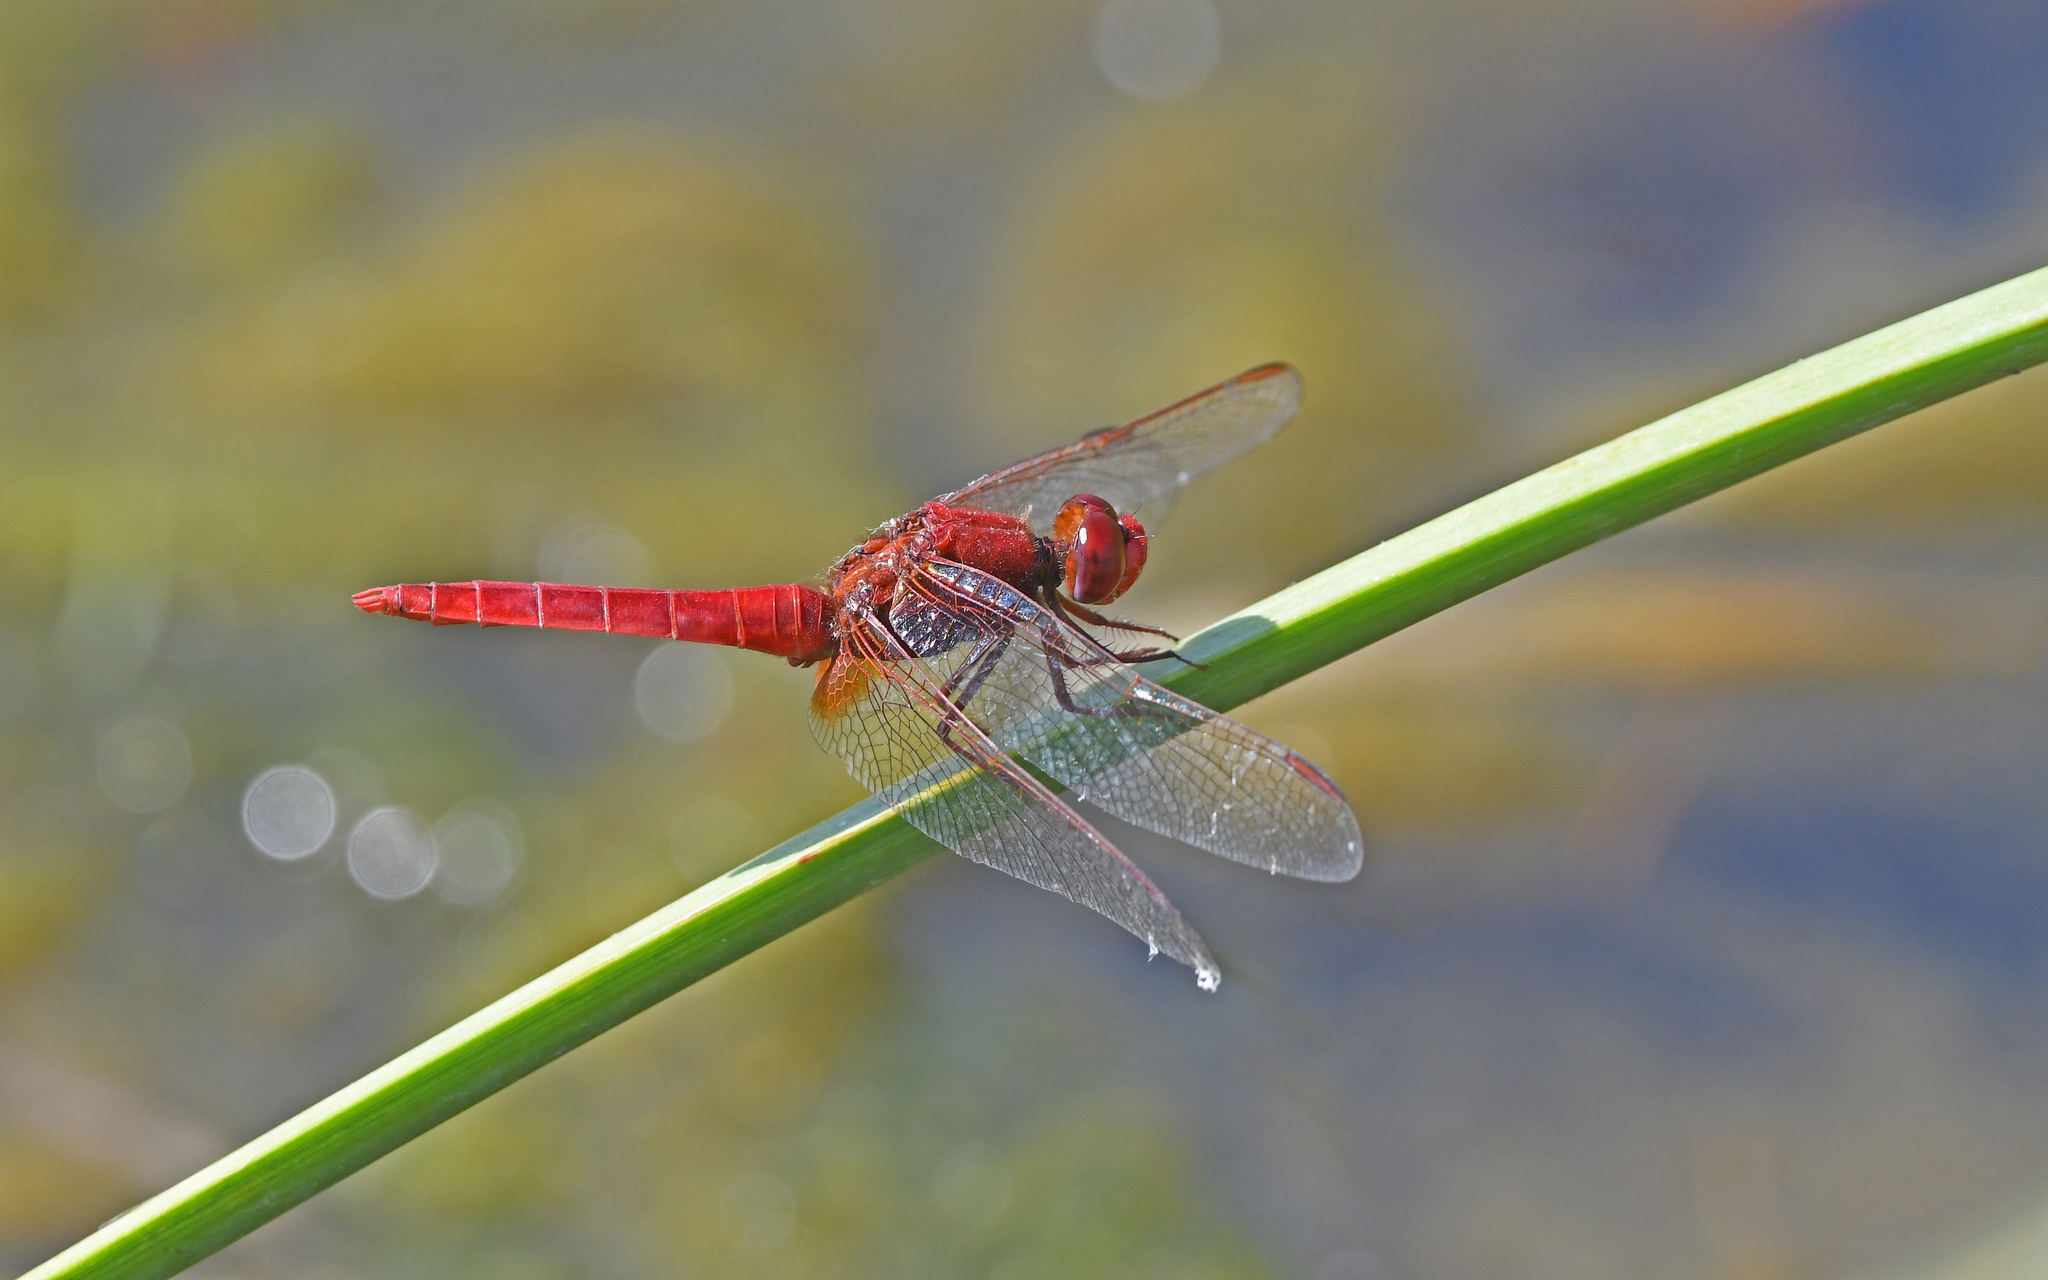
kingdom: Animalia
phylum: Arthropoda
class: Insecta
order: Odonata
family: Libellulidae
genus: Crocothemis
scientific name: Crocothemis erythraea
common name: Scarlet dragonfly
